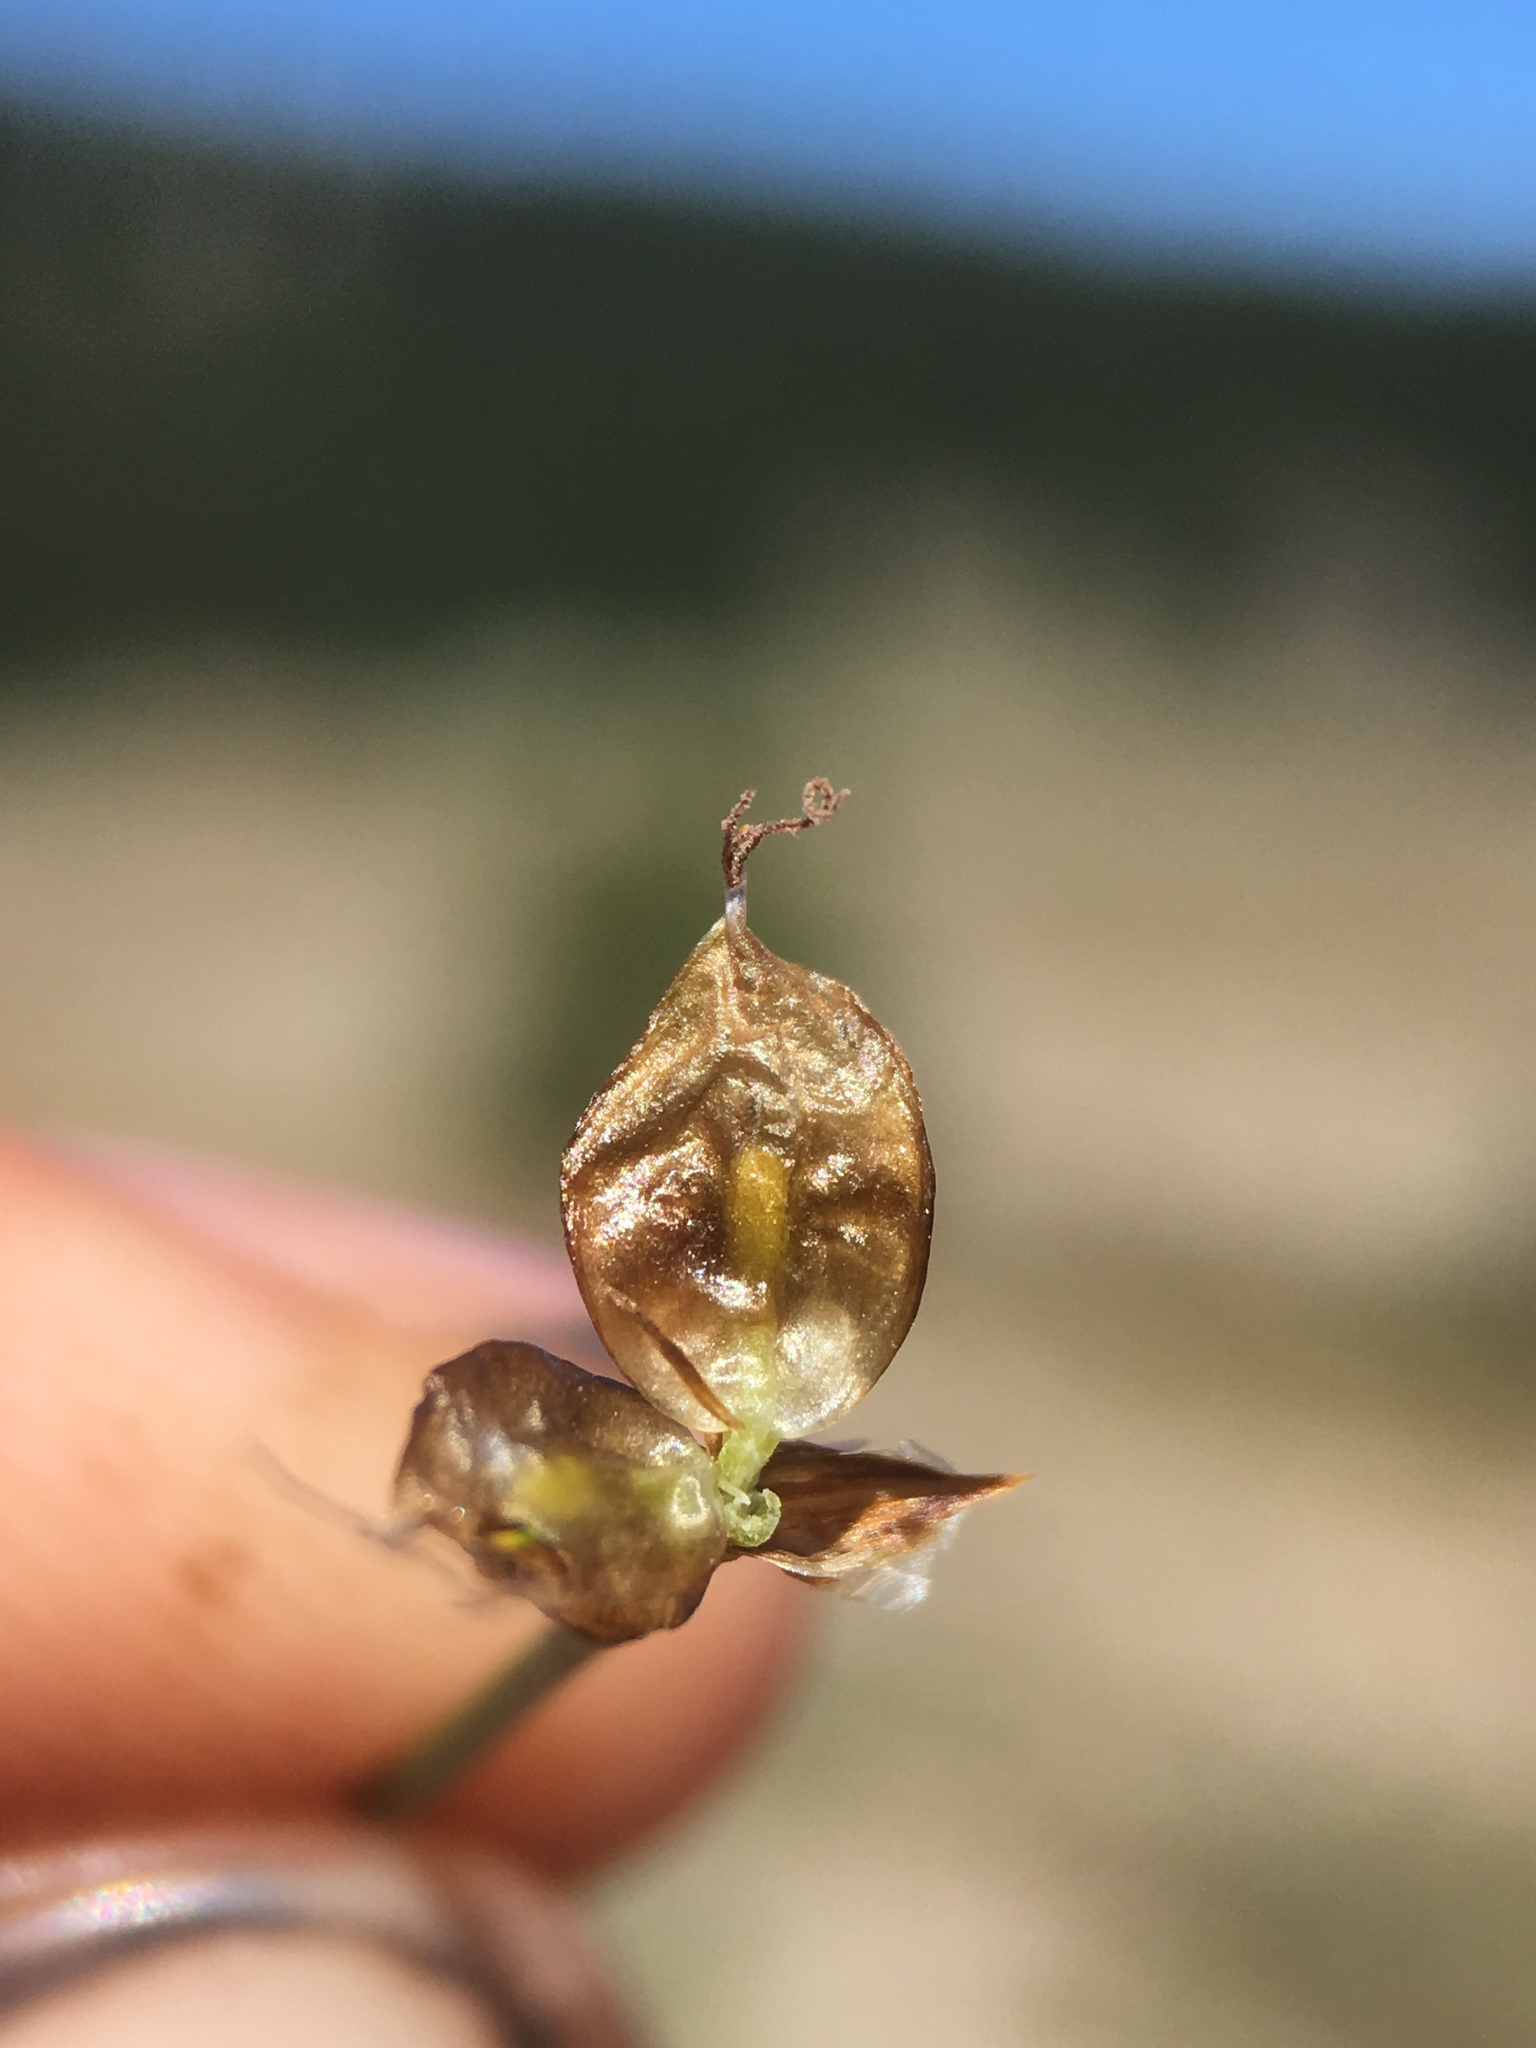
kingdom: Plantae
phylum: Tracheophyta
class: Liliopsida
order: Poales
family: Cyperaceae
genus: Carex
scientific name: Carex breweri
